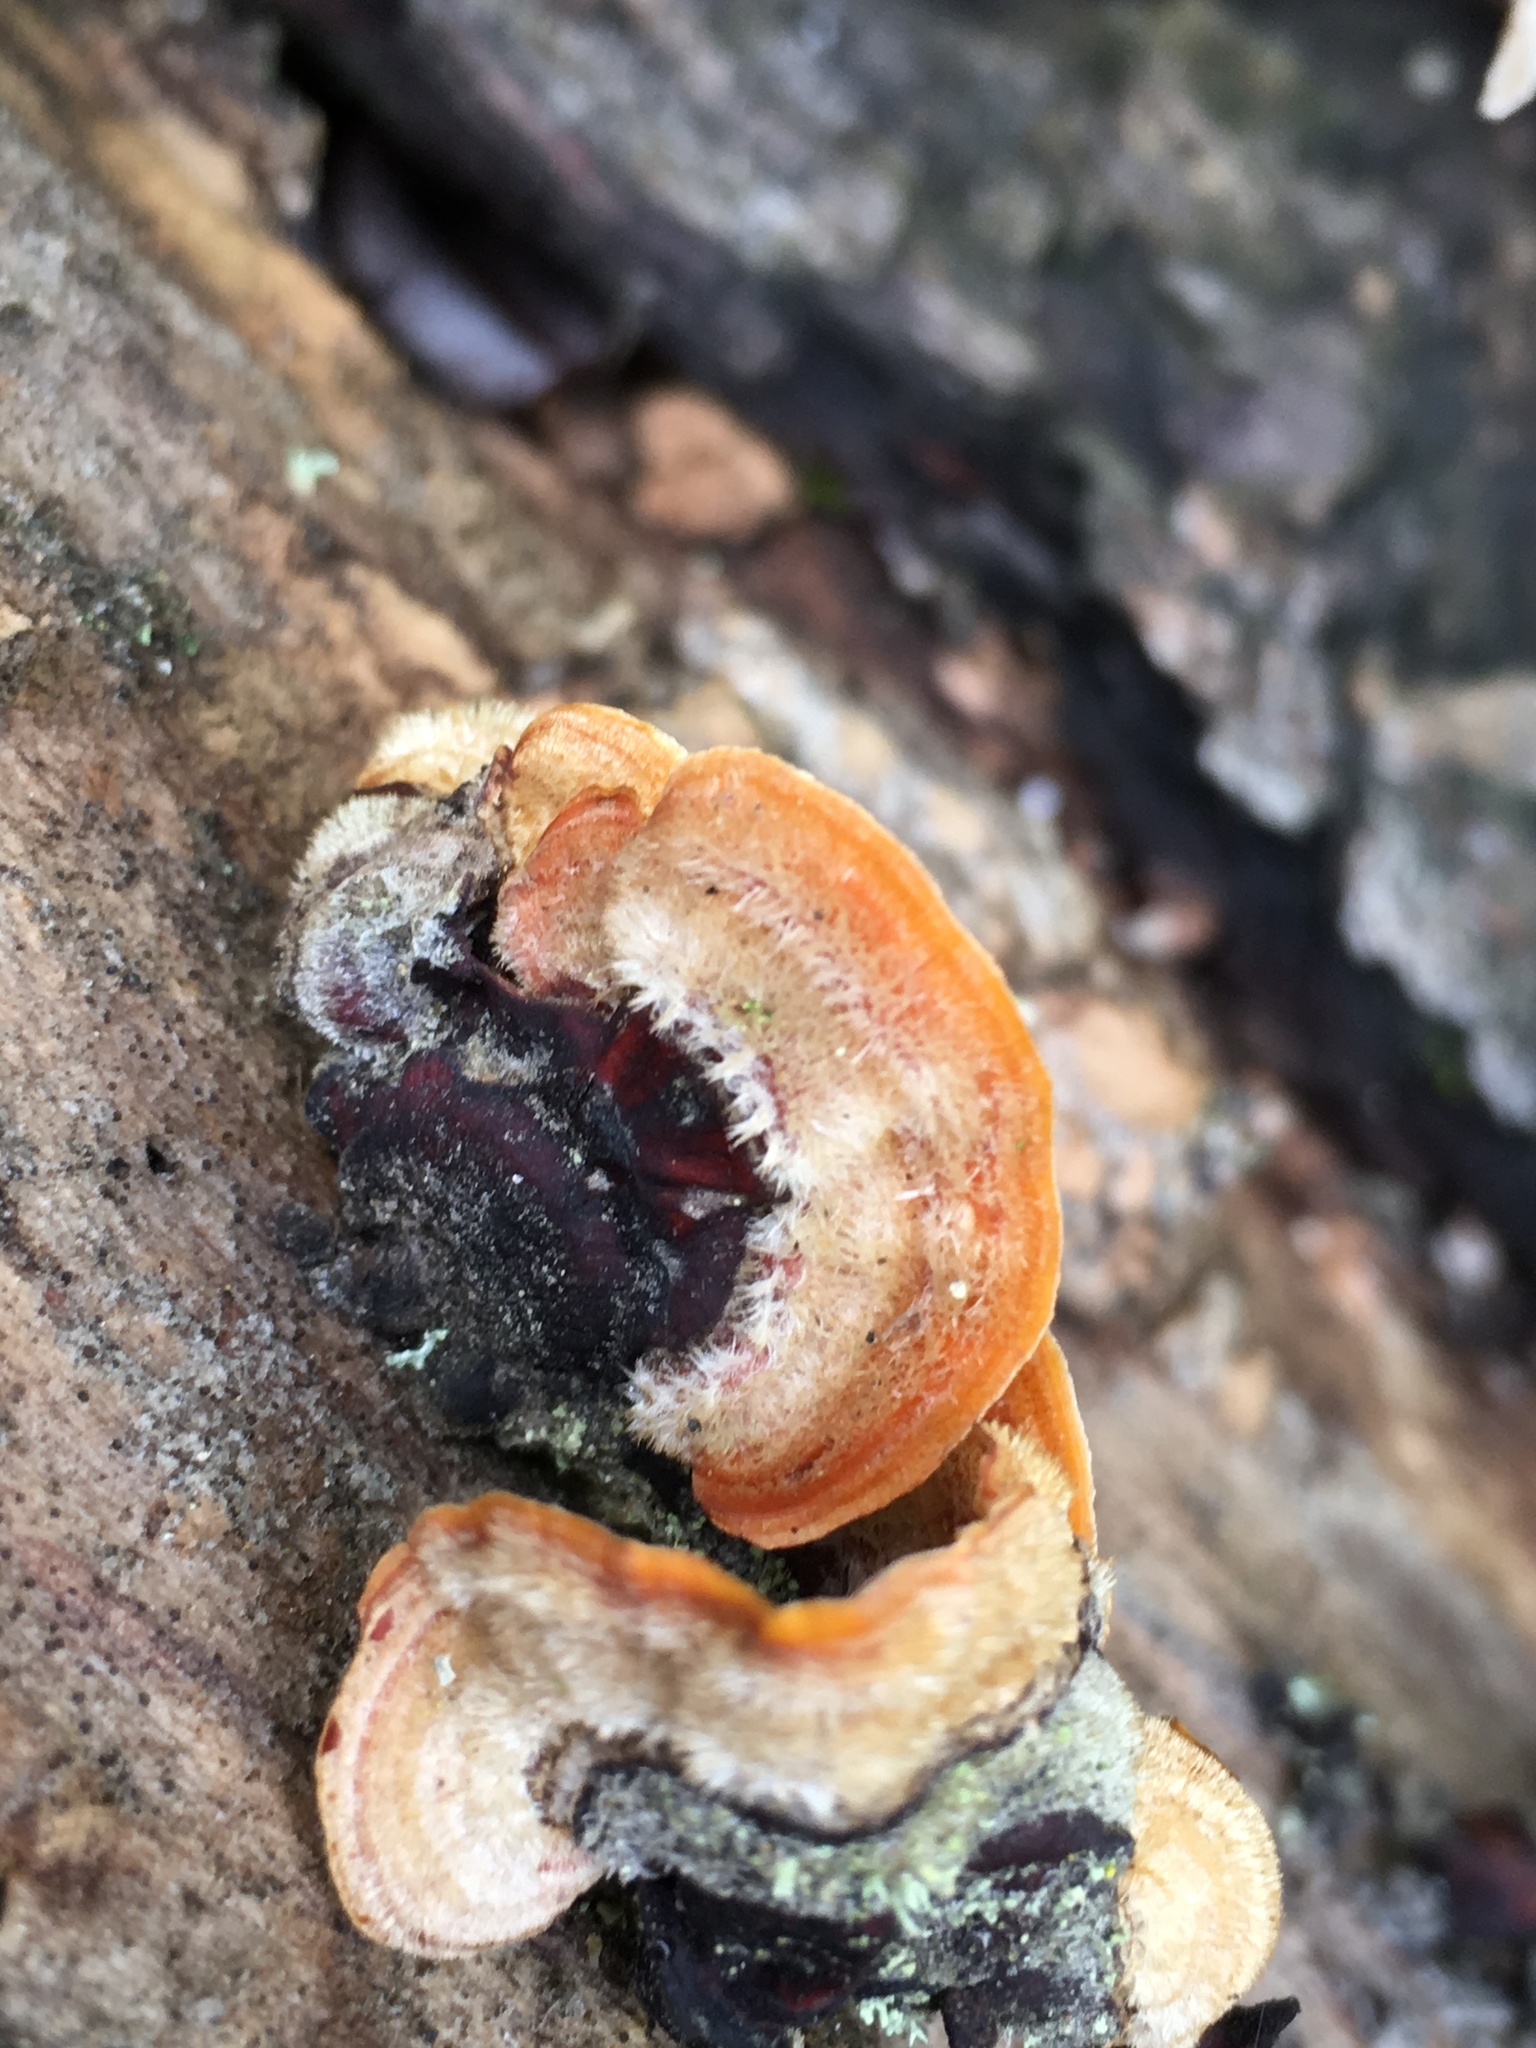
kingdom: Fungi
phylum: Basidiomycota
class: Agaricomycetes
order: Russulales
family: Stereaceae
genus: Stereum
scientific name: Stereum hirsutum
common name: Hairy curtain crust
